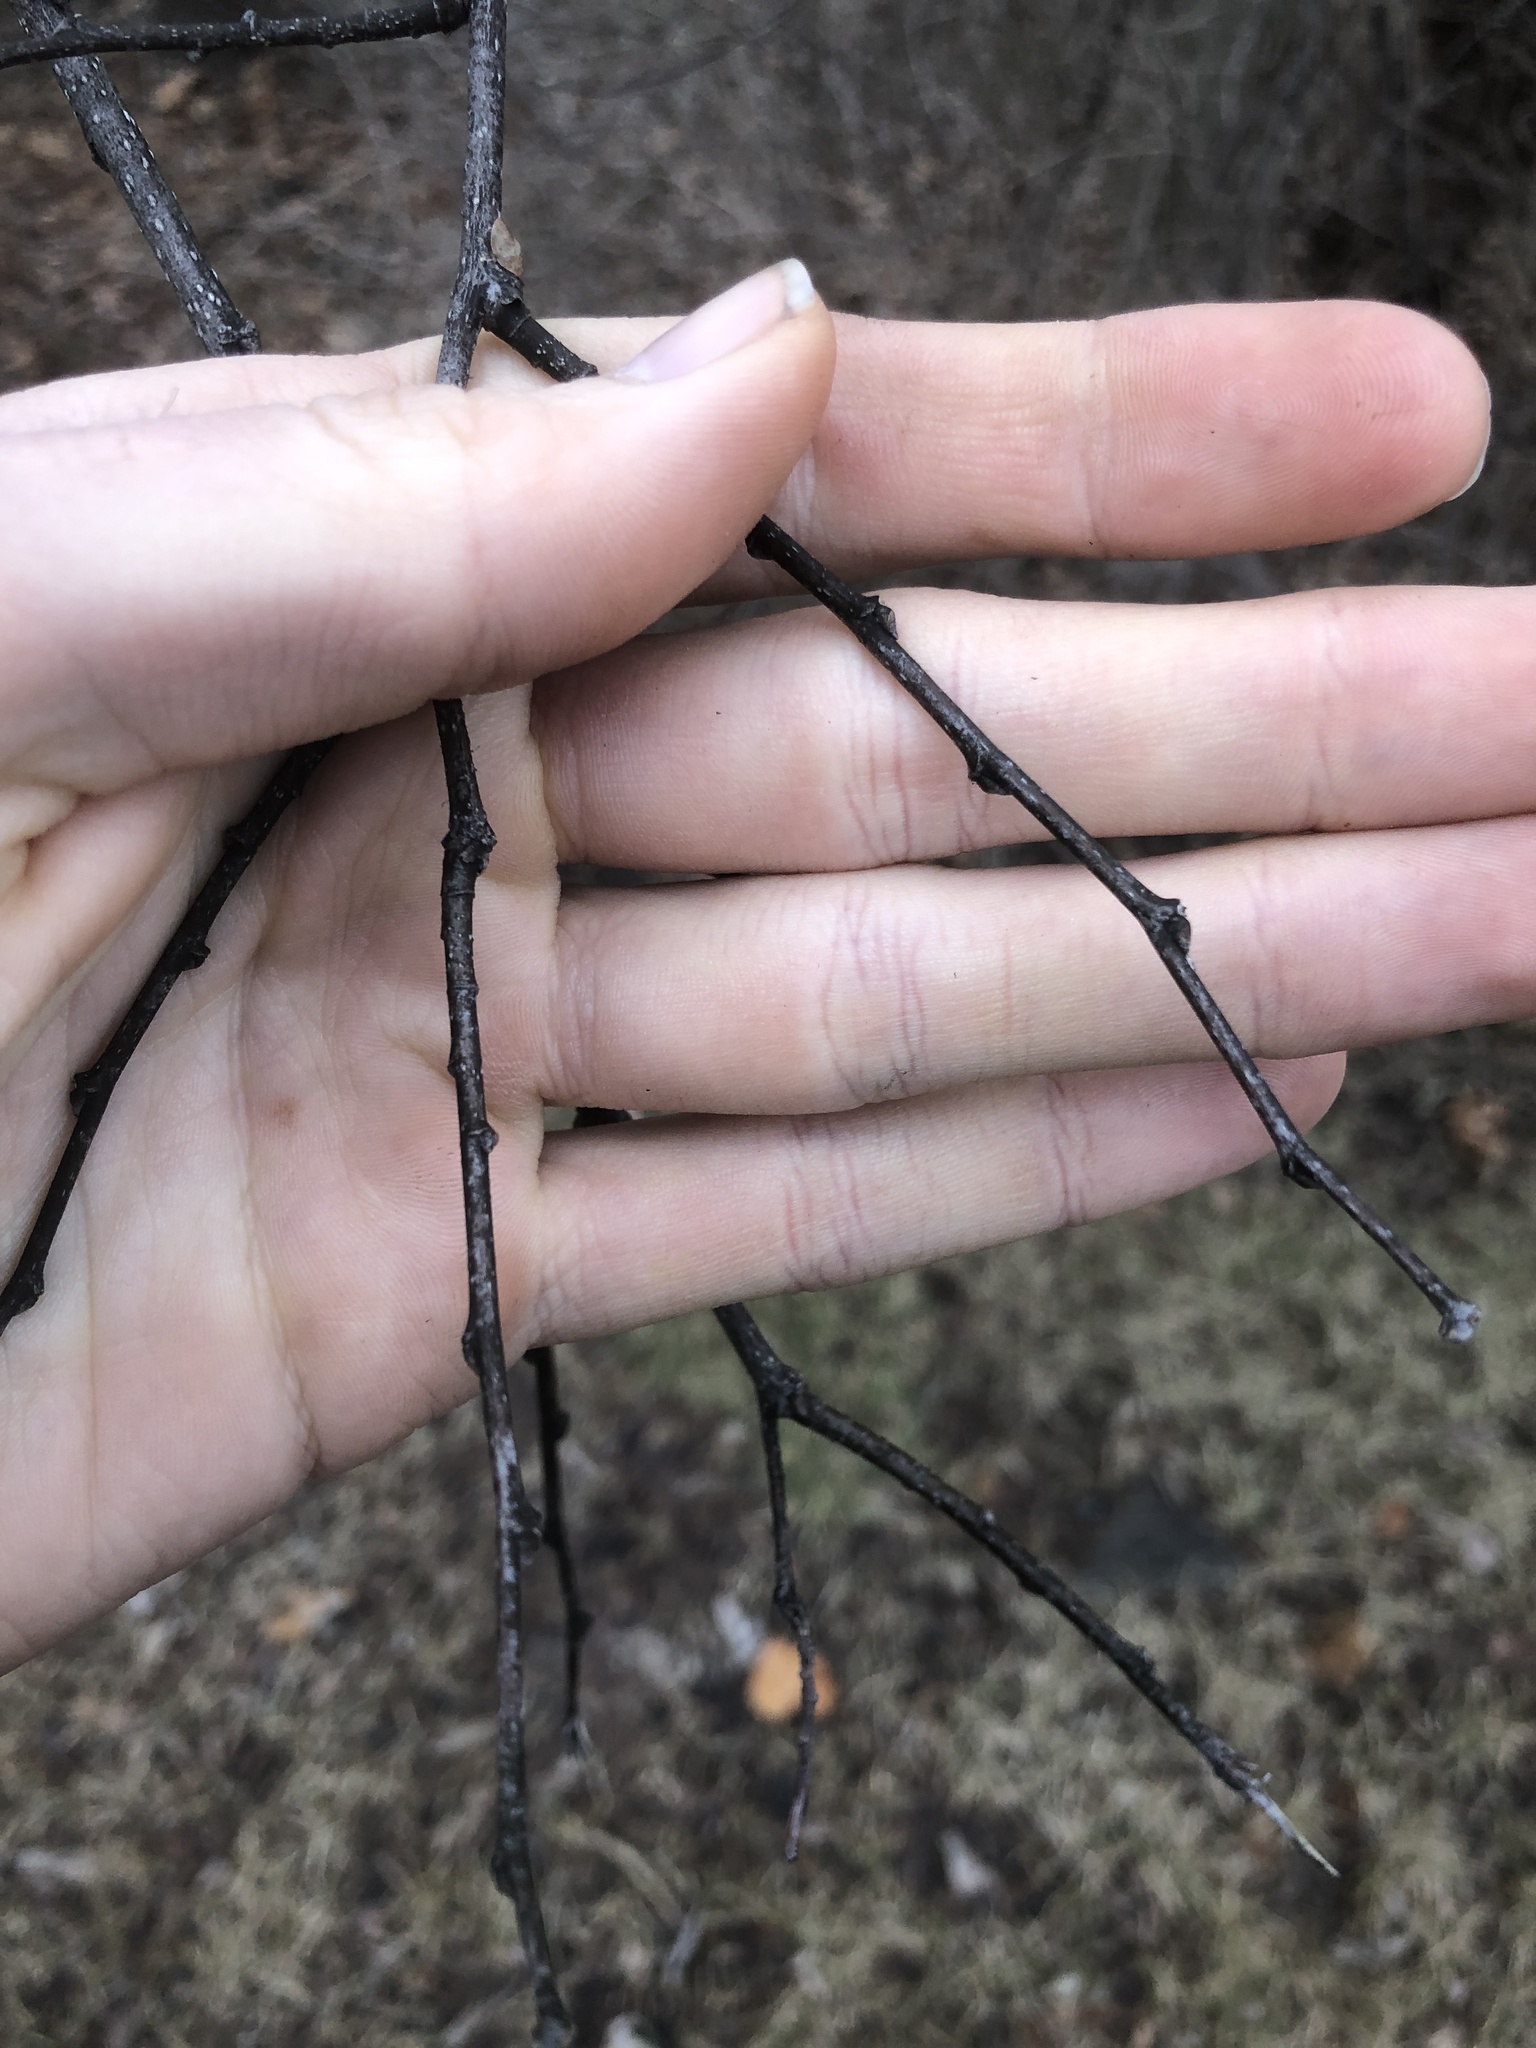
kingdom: Plantae
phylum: Tracheophyta
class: Magnoliopsida
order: Rosales
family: Cannabaceae
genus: Celtis
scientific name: Celtis occidentalis
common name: Common hackberry
